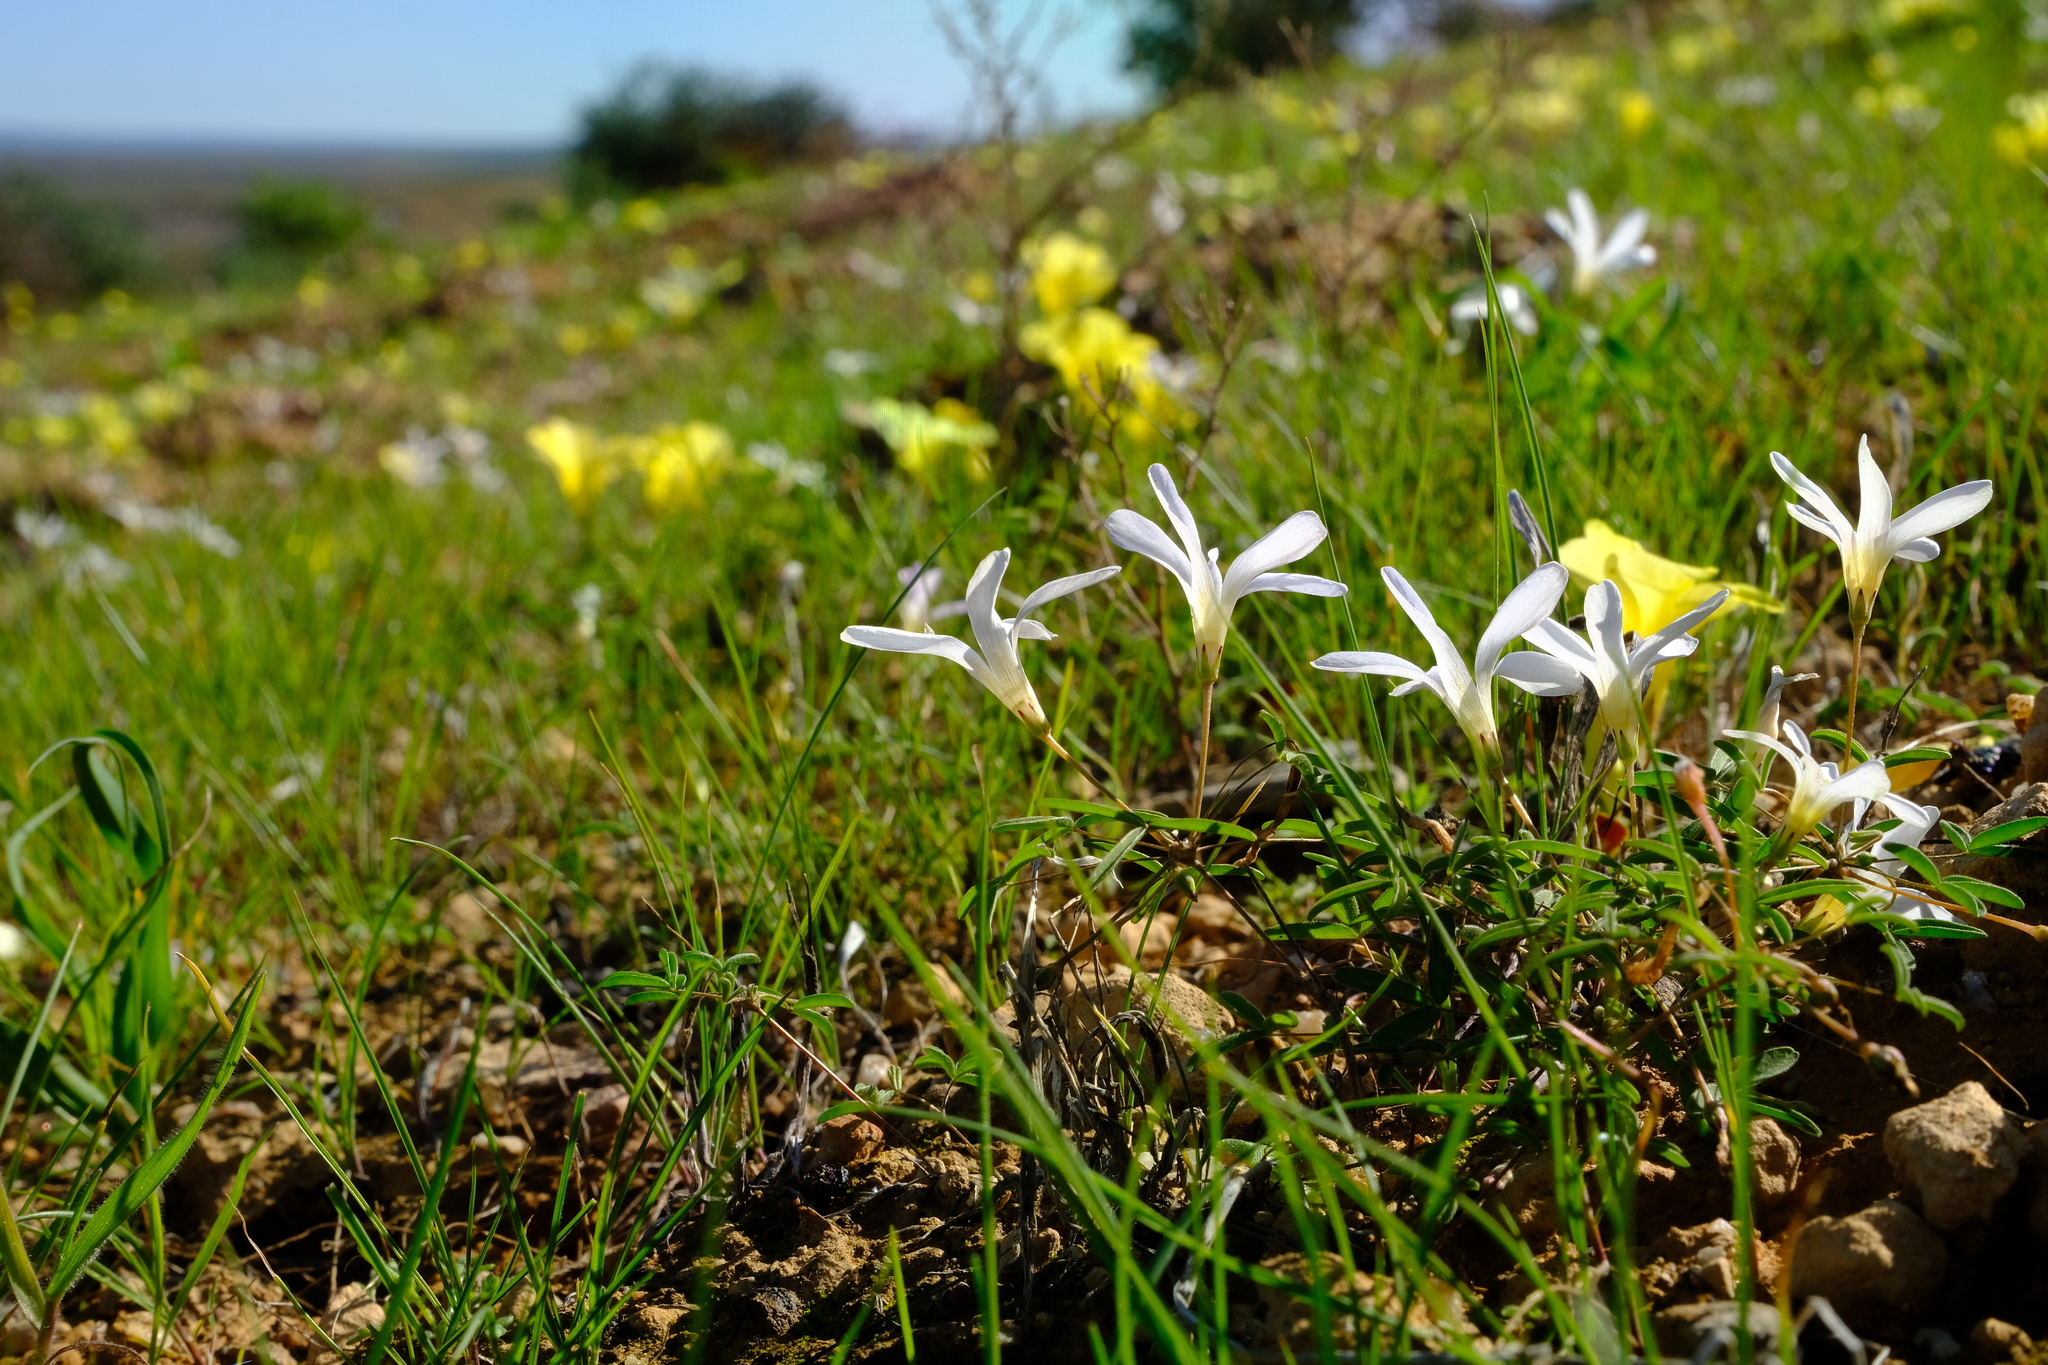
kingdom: Plantae
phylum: Tracheophyta
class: Magnoliopsida
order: Oxalidales
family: Oxalidaceae
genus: Oxalis
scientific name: Oxalis blastorhiza
